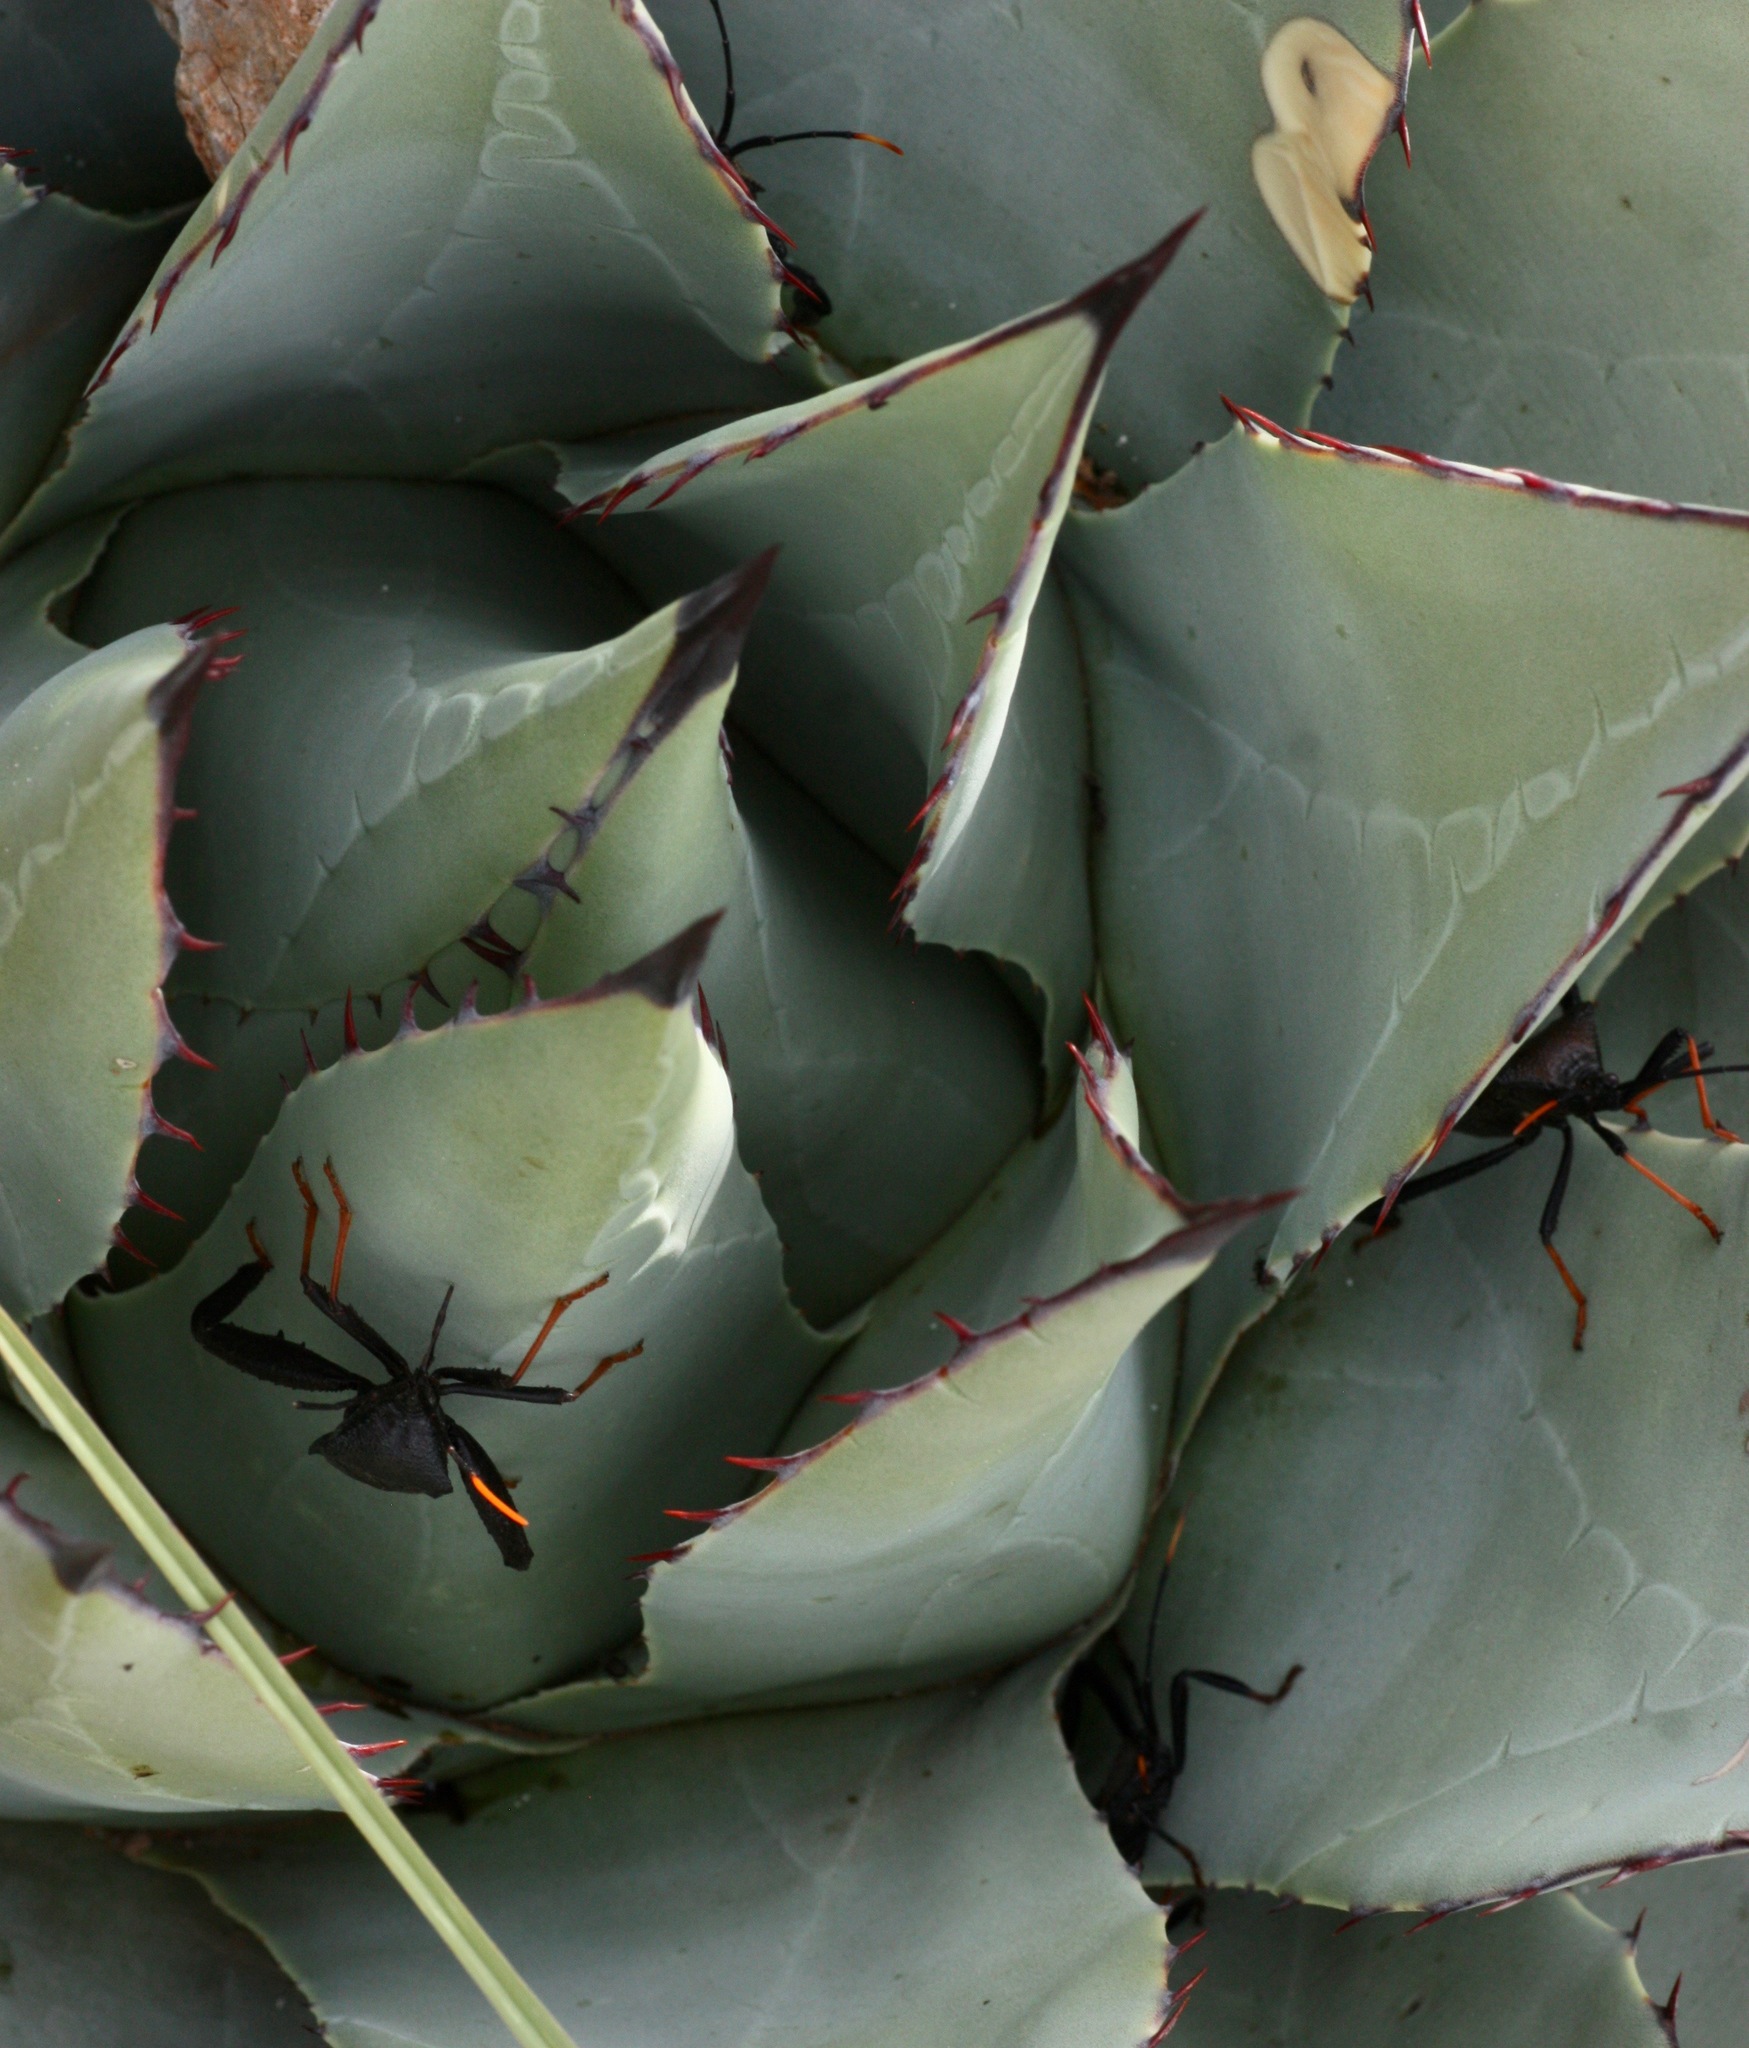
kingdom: Animalia
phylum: Arthropoda
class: Insecta
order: Hemiptera
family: Coreidae
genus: Acanthocephala
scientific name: Acanthocephala thomasi
